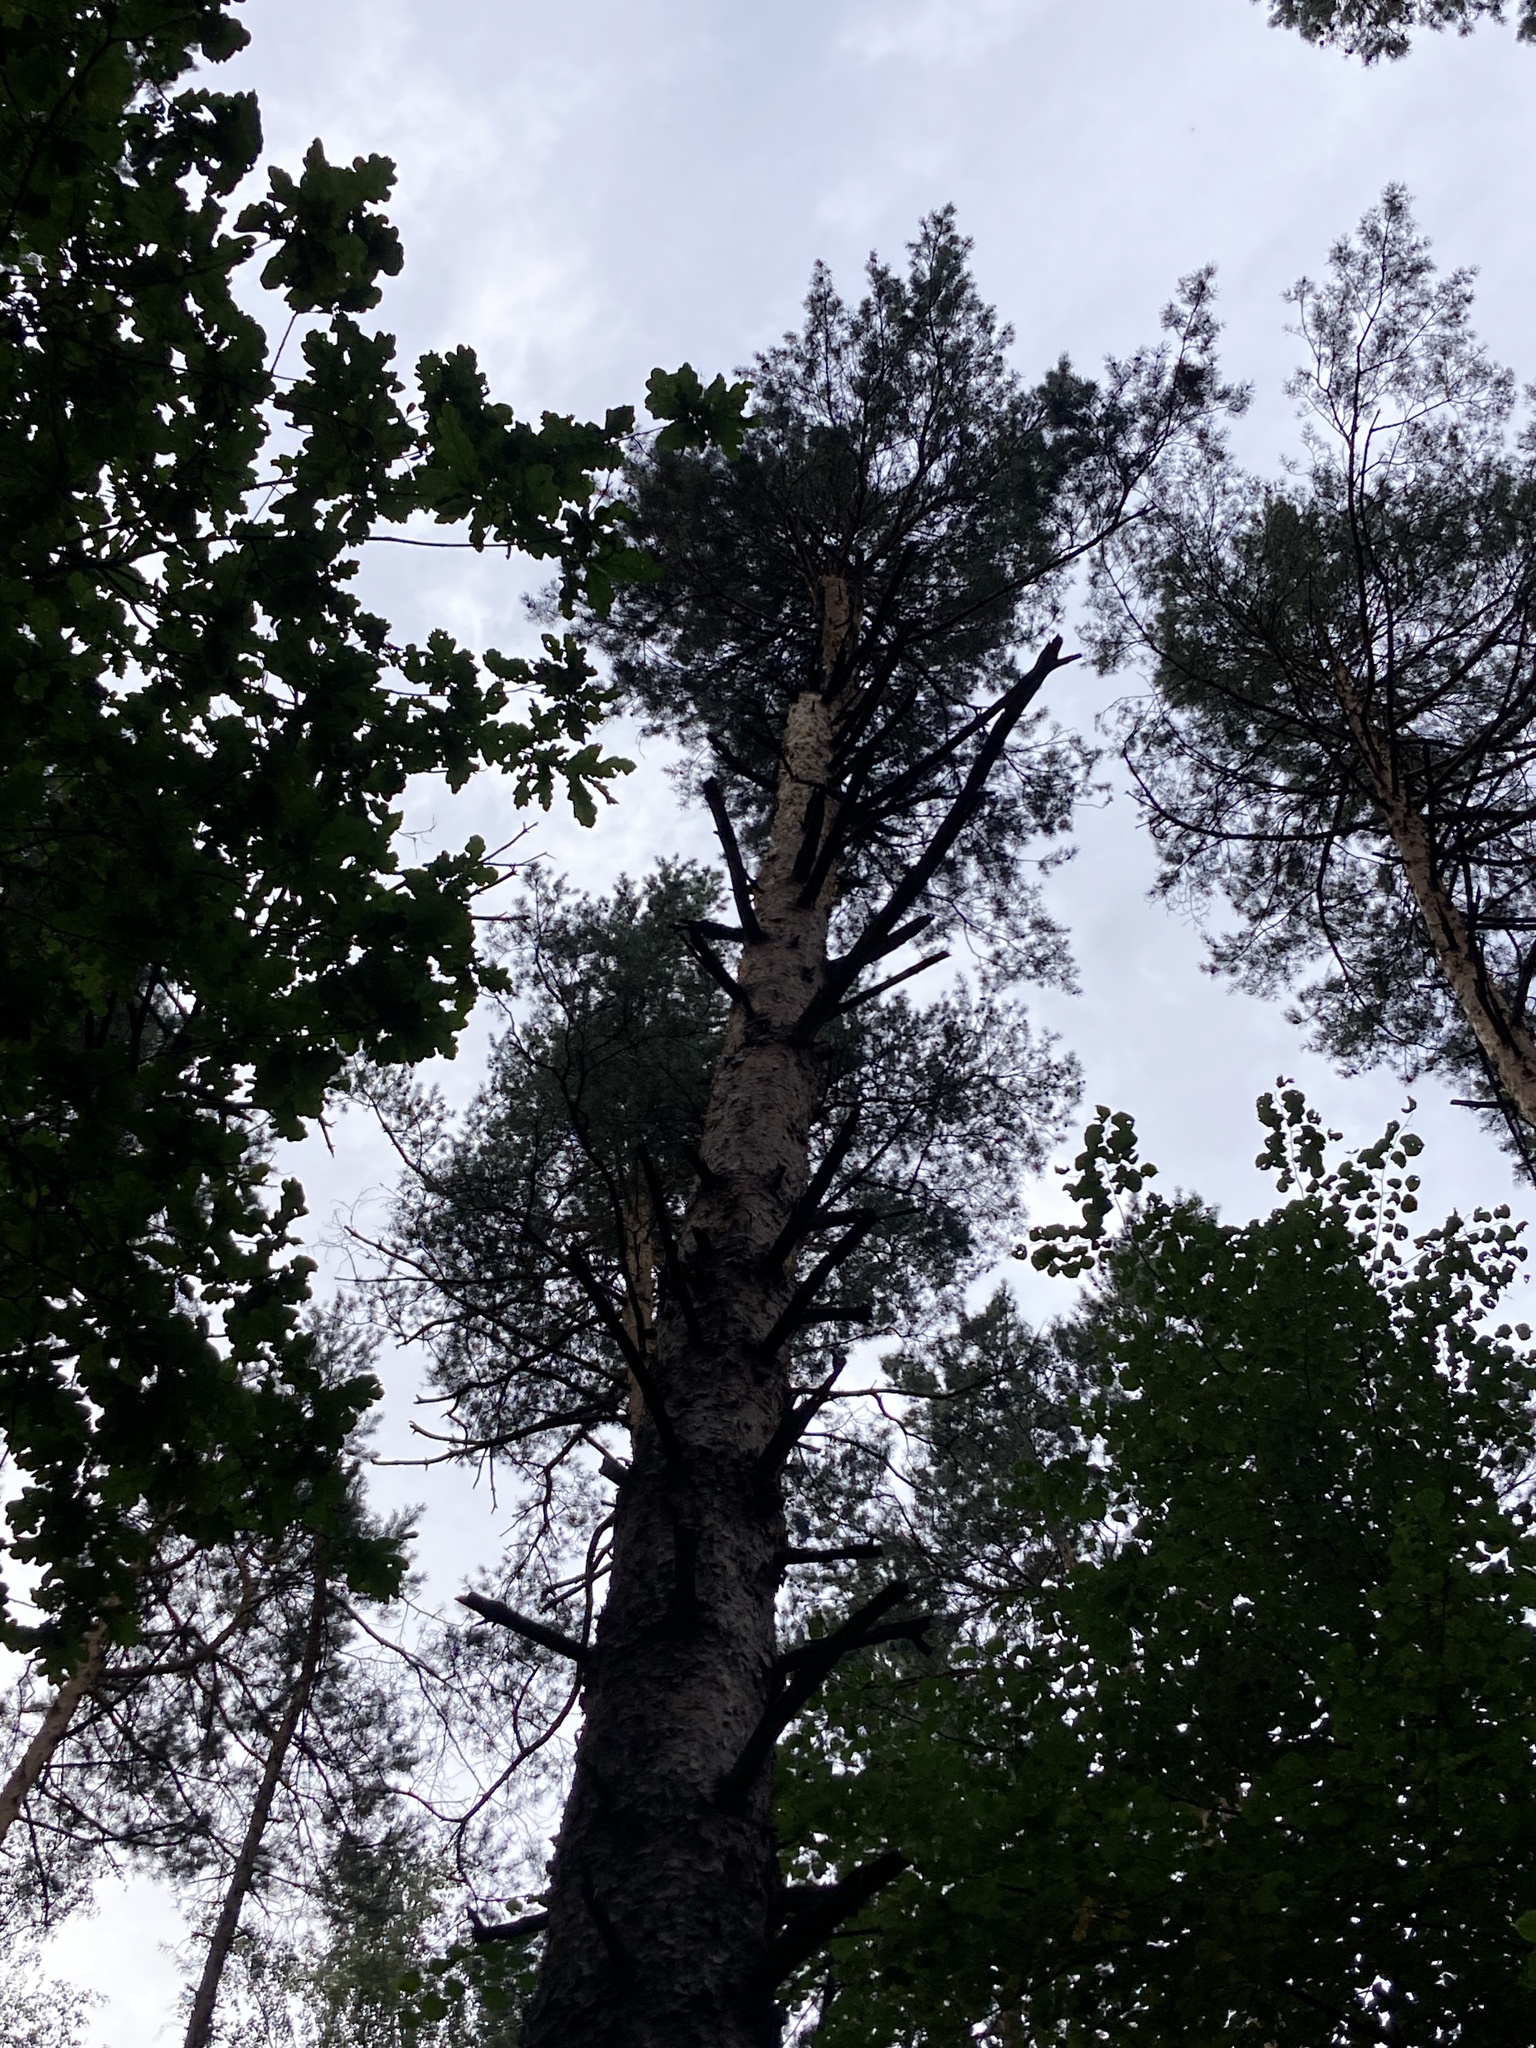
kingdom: Plantae
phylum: Tracheophyta
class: Pinopsida
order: Pinales
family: Pinaceae
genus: Pinus
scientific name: Pinus sylvestris
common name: Scots pine
